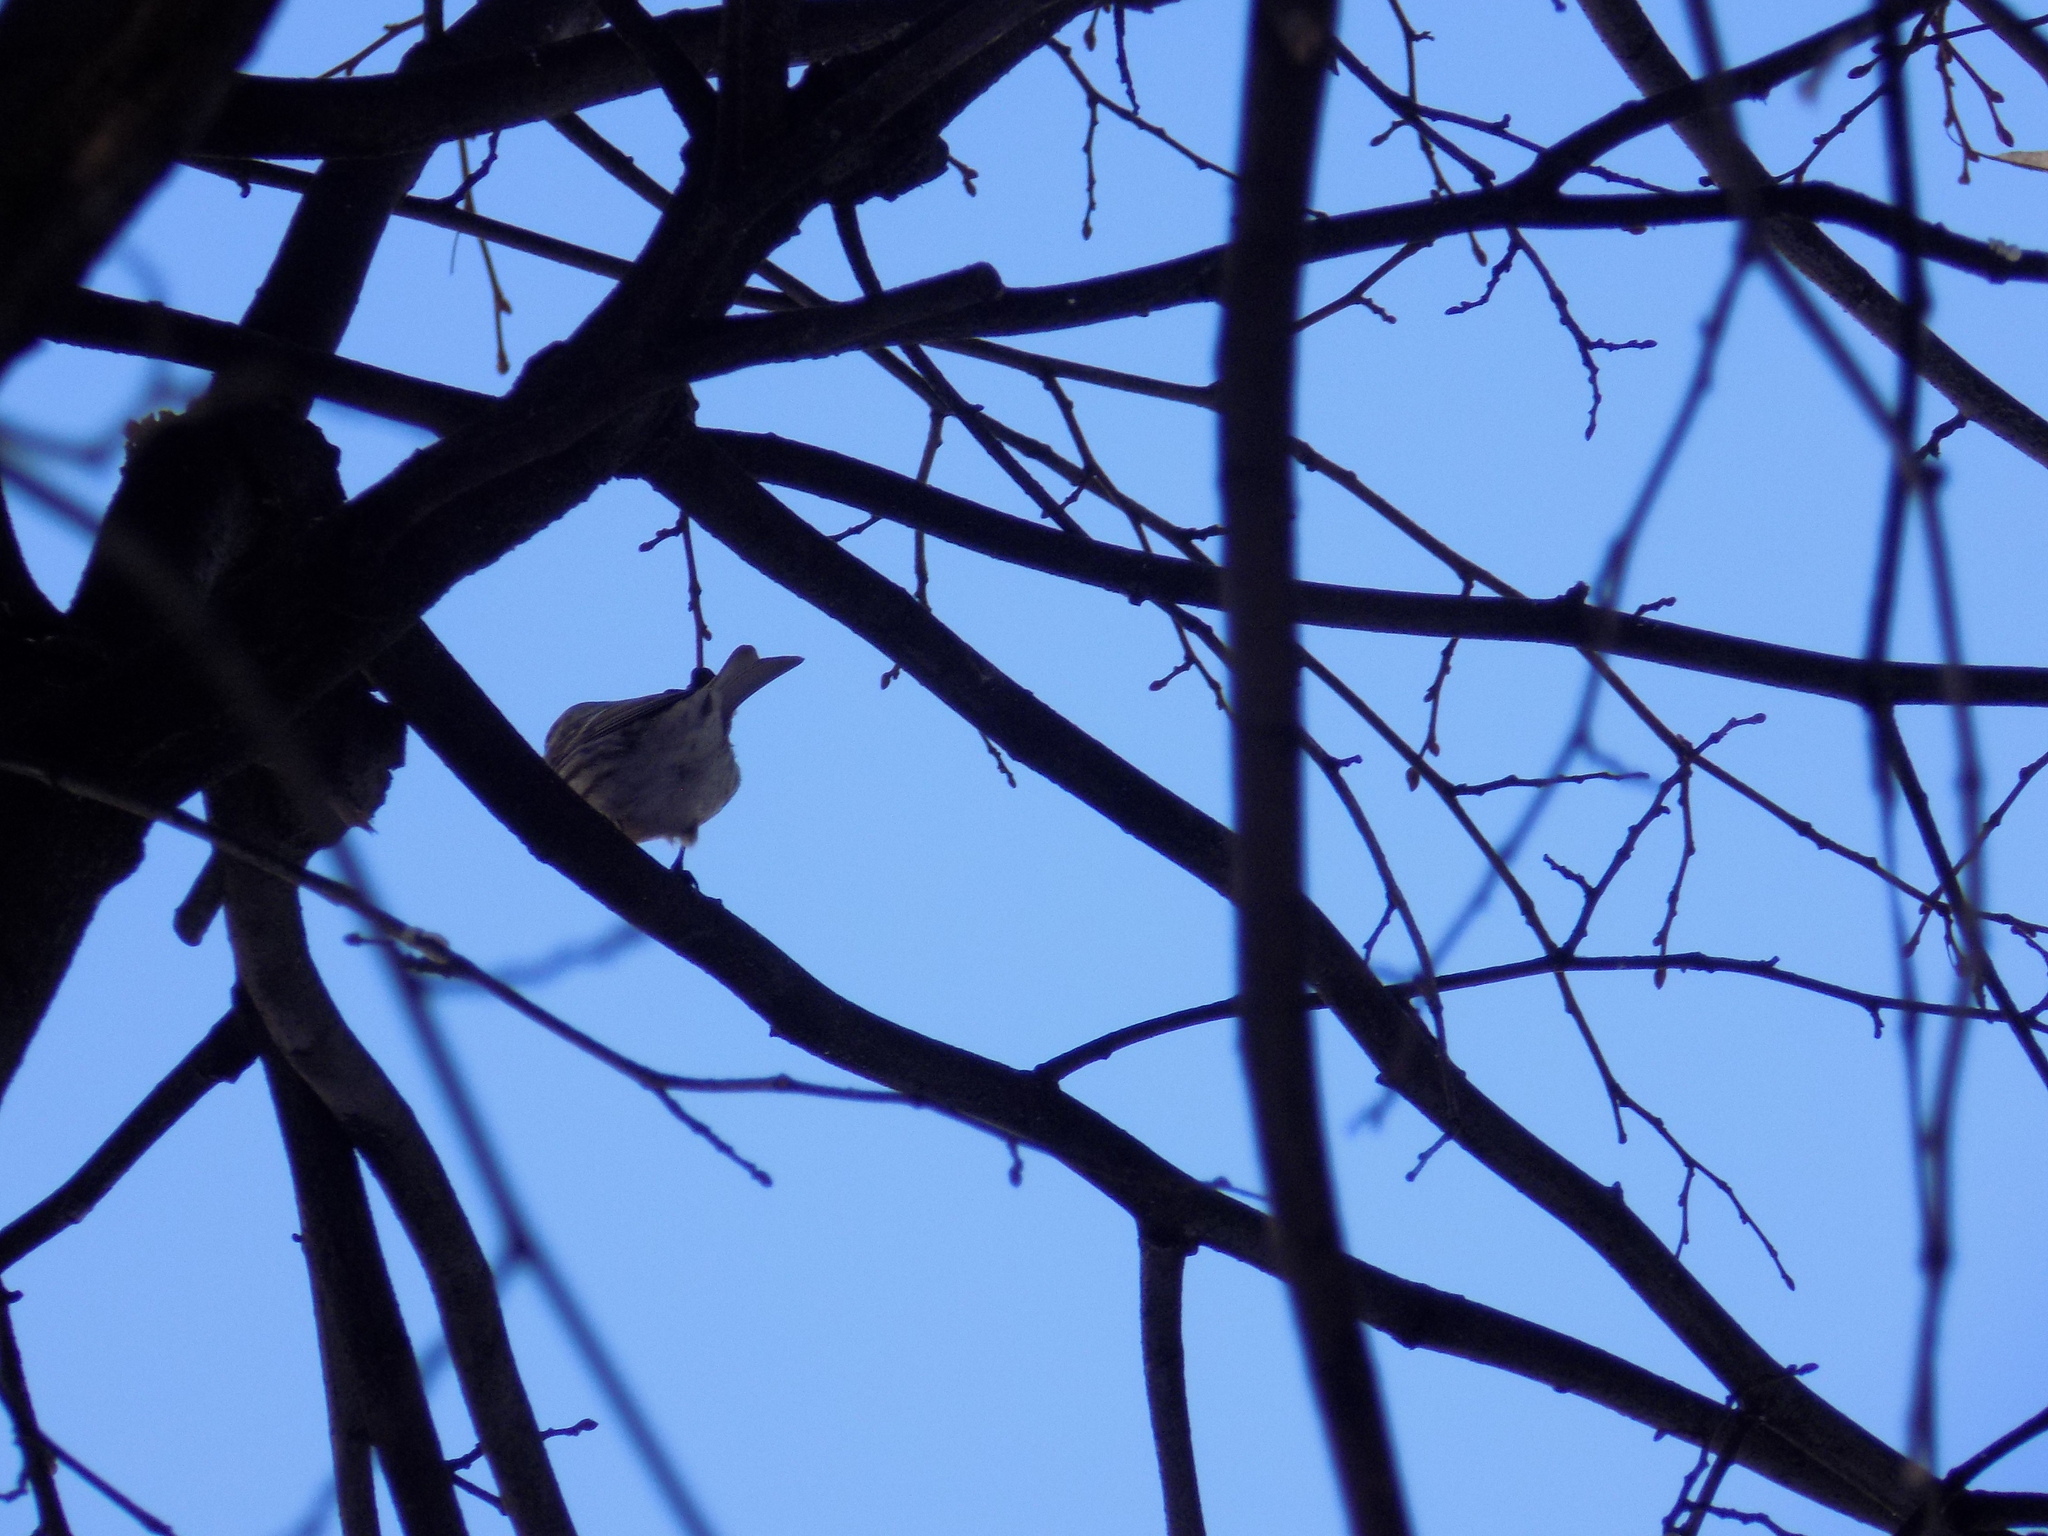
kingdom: Animalia
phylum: Chordata
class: Aves
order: Passeriformes
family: Fringillidae
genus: Acanthis
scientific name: Acanthis flammea
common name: Common redpoll
